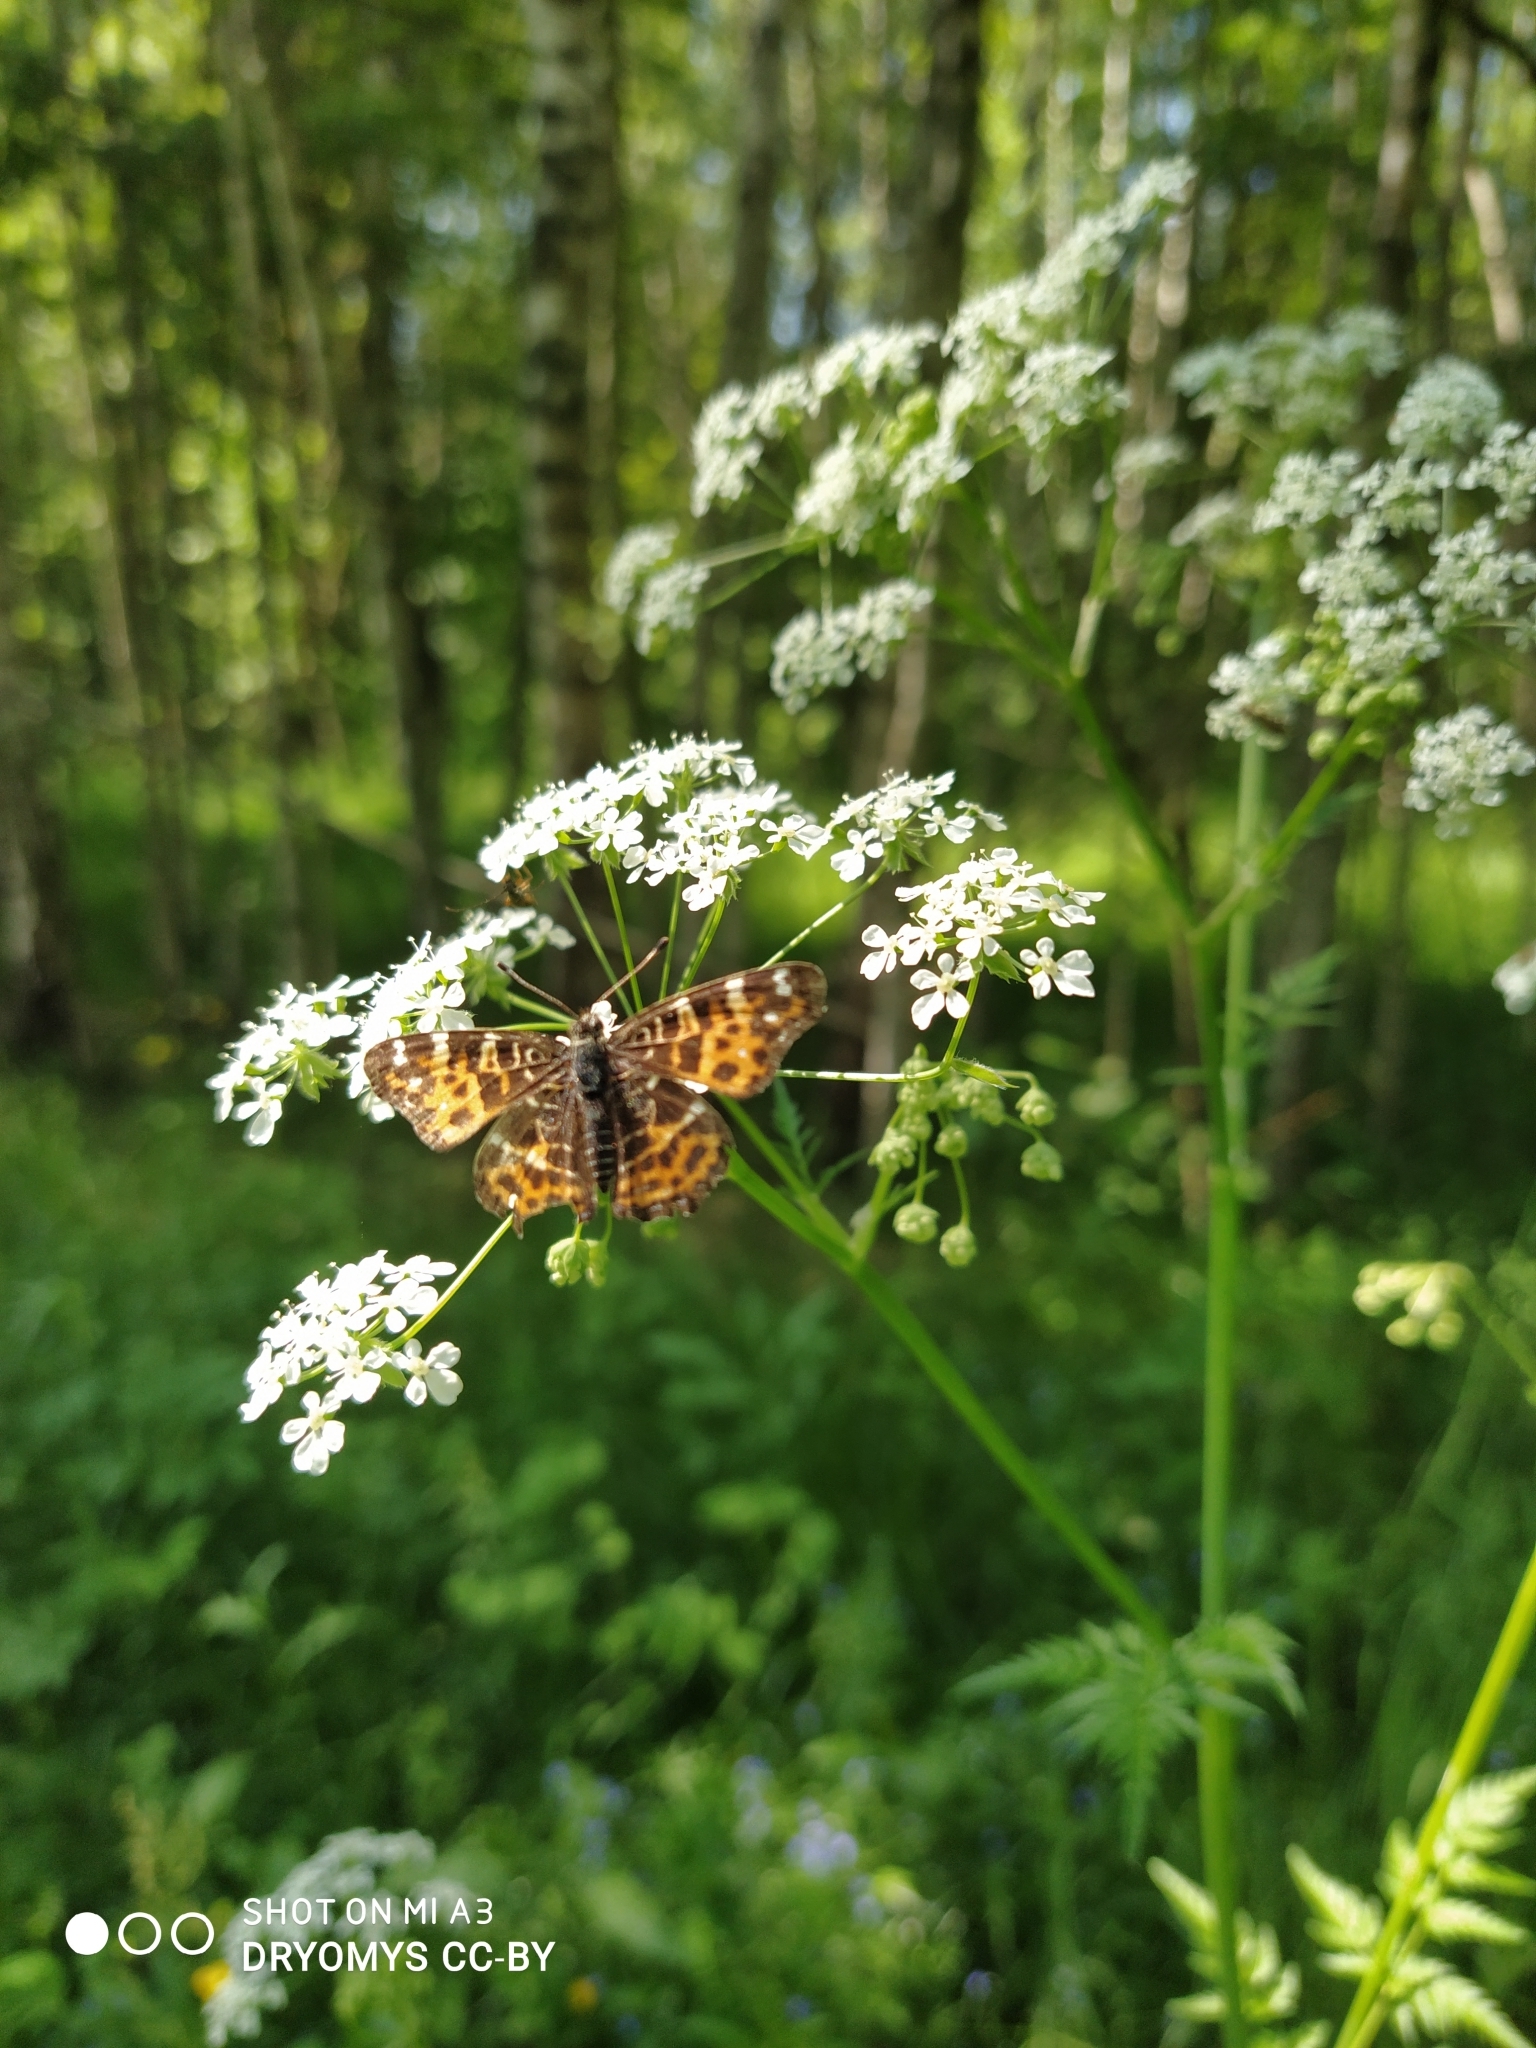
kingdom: Animalia
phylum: Arthropoda
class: Insecta
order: Lepidoptera
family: Nymphalidae
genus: Araschnia
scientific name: Araschnia levana
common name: Map butterfly
